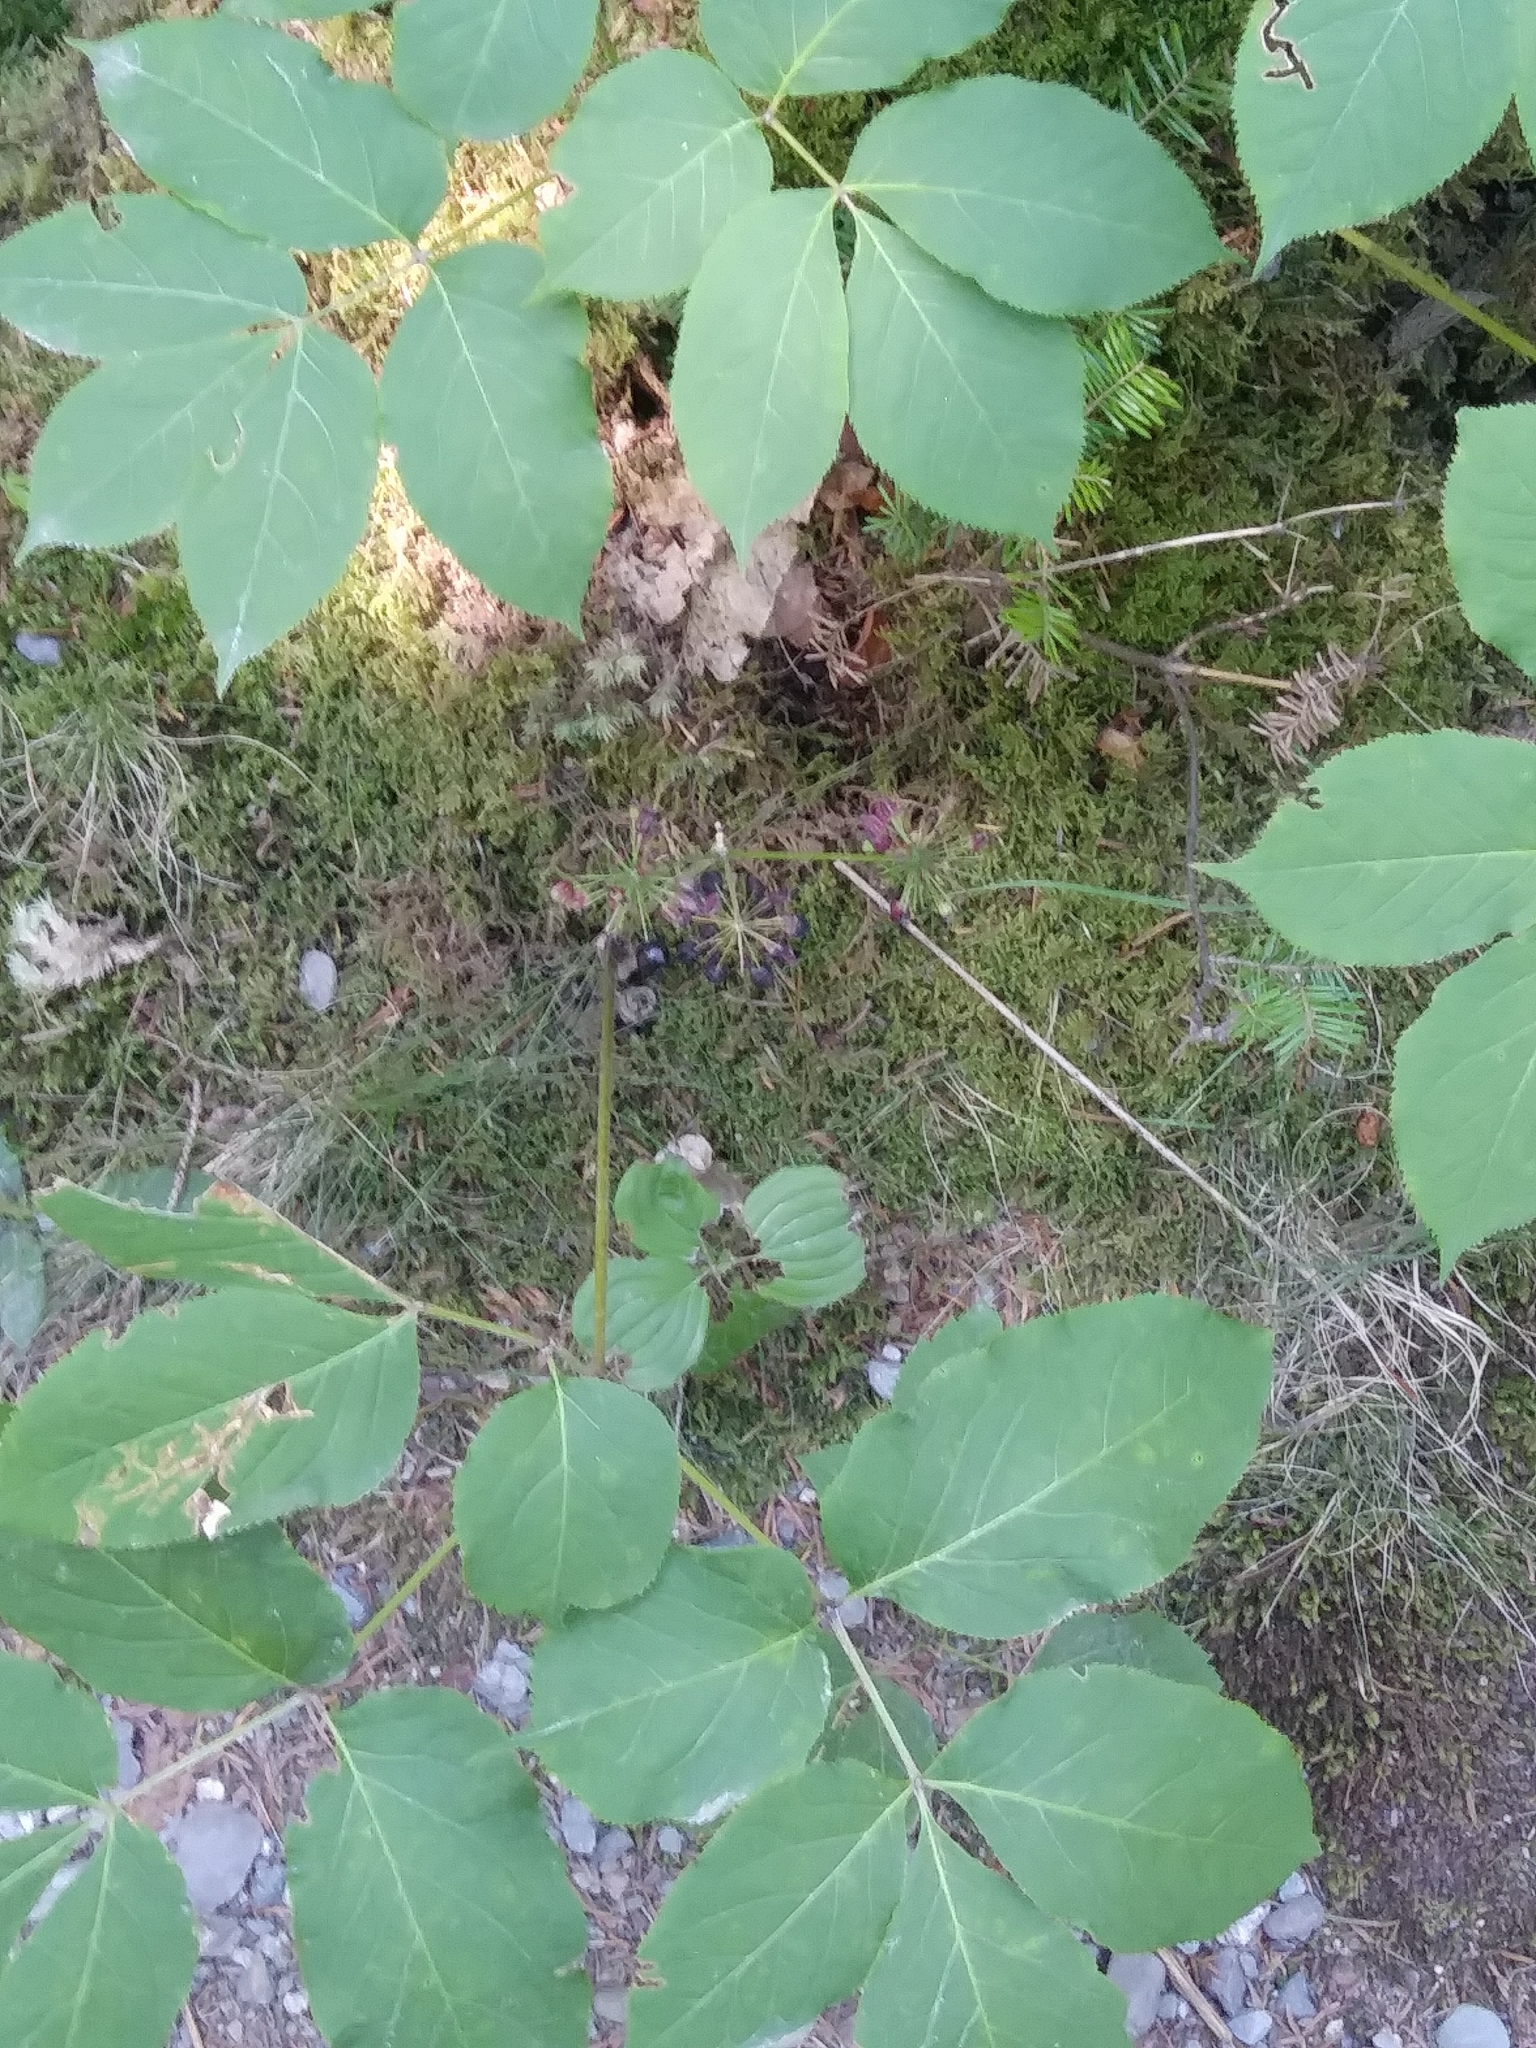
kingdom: Plantae
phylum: Tracheophyta
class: Magnoliopsida
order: Apiales
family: Araliaceae
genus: Aralia
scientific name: Aralia nudicaulis
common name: Wild sarsaparilla
